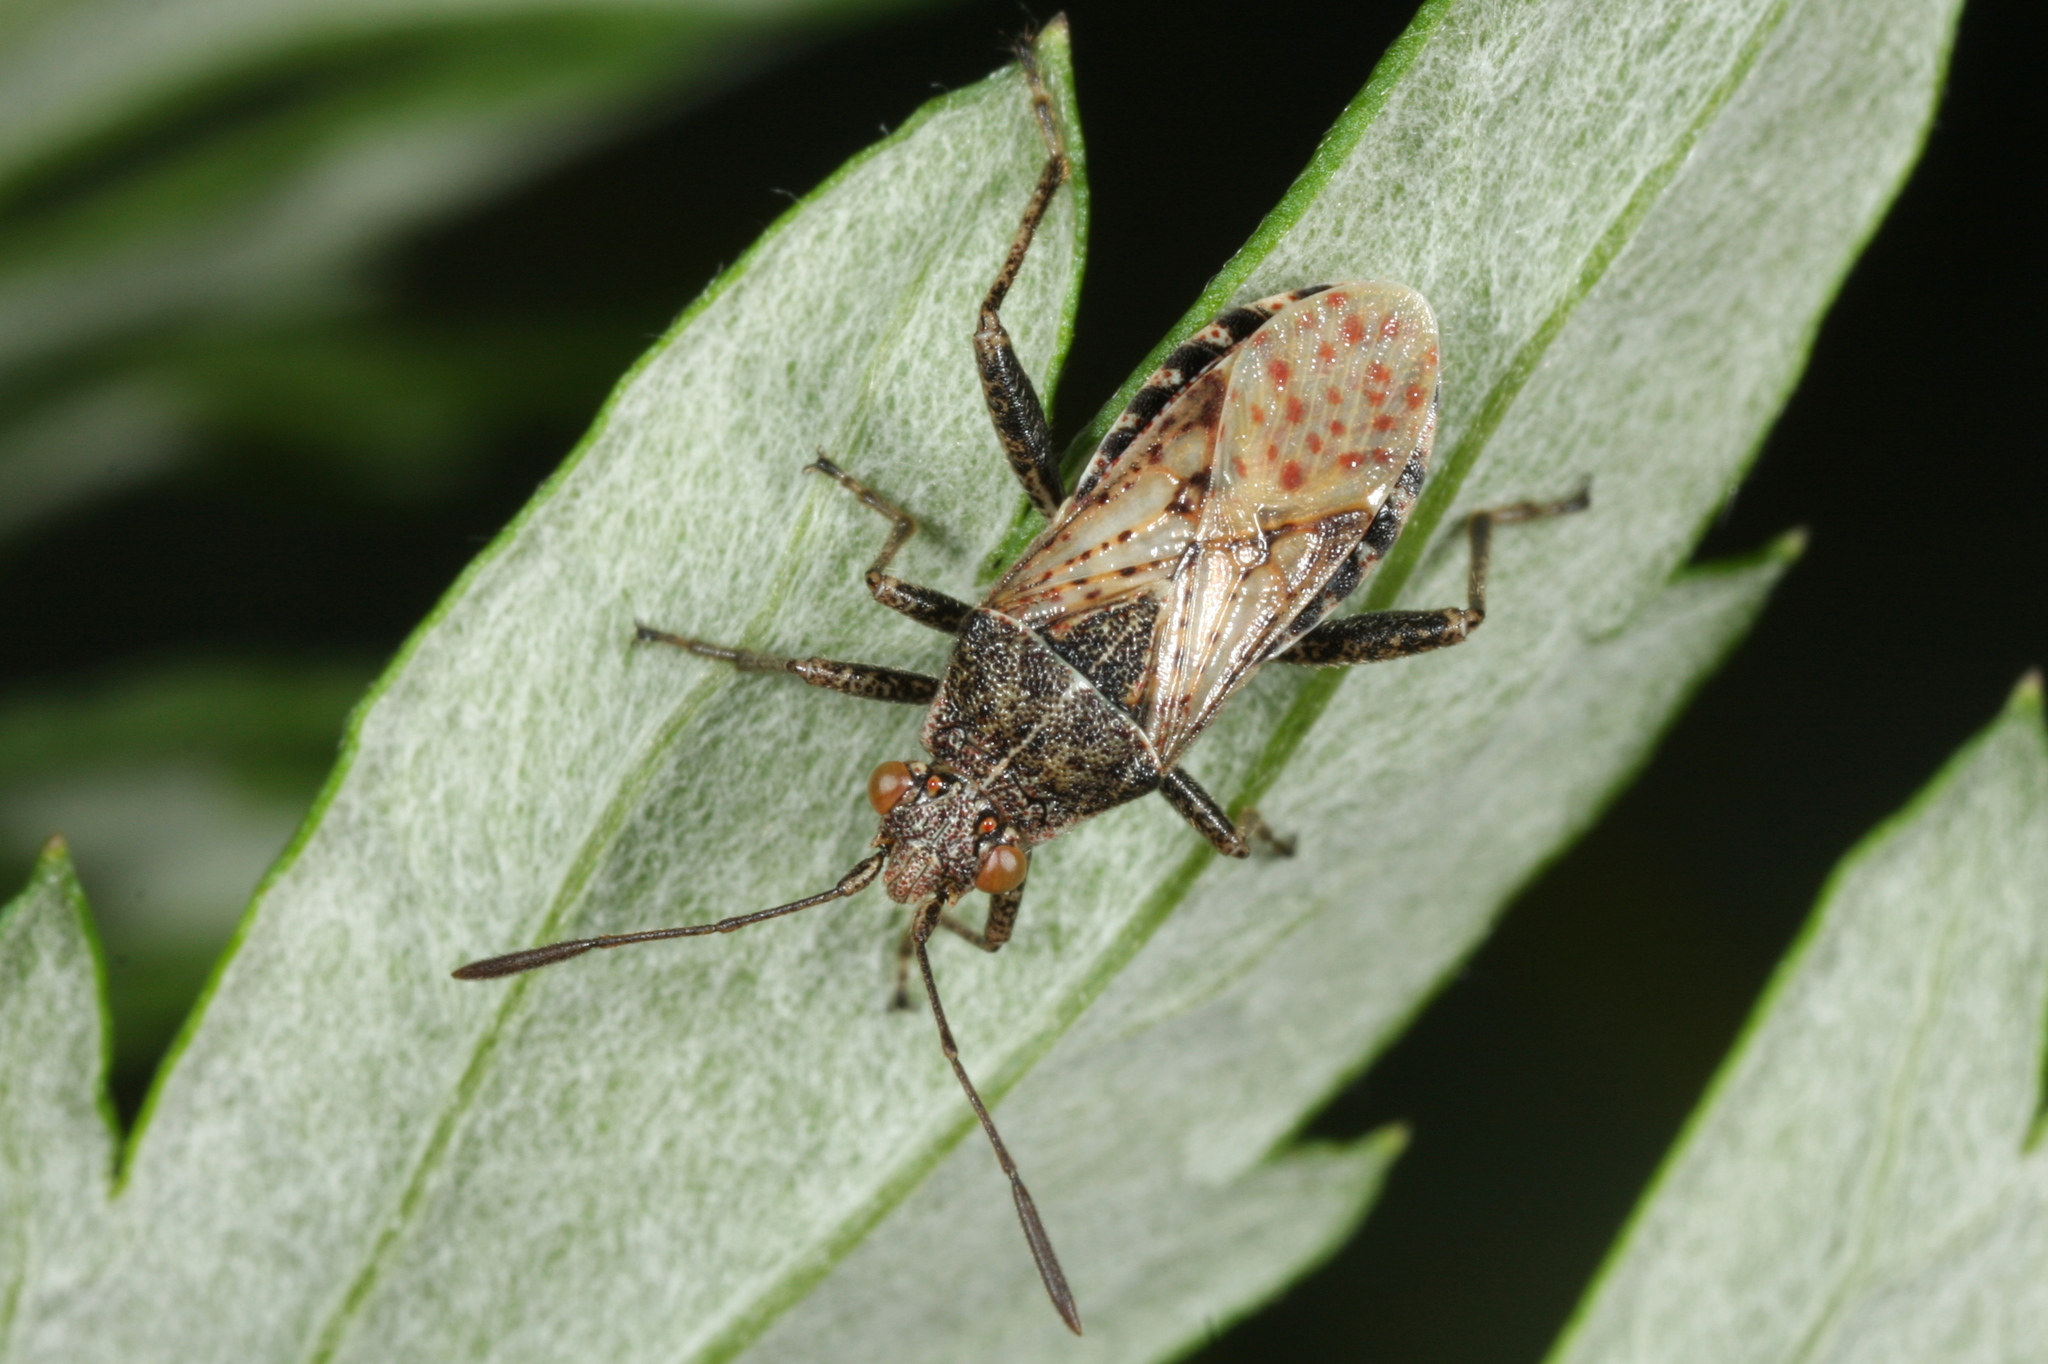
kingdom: Animalia
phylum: Arthropoda
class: Insecta
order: Hemiptera
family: Rhopalidae
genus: Stictopleurus
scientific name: Stictopleurus punctatonervosus
